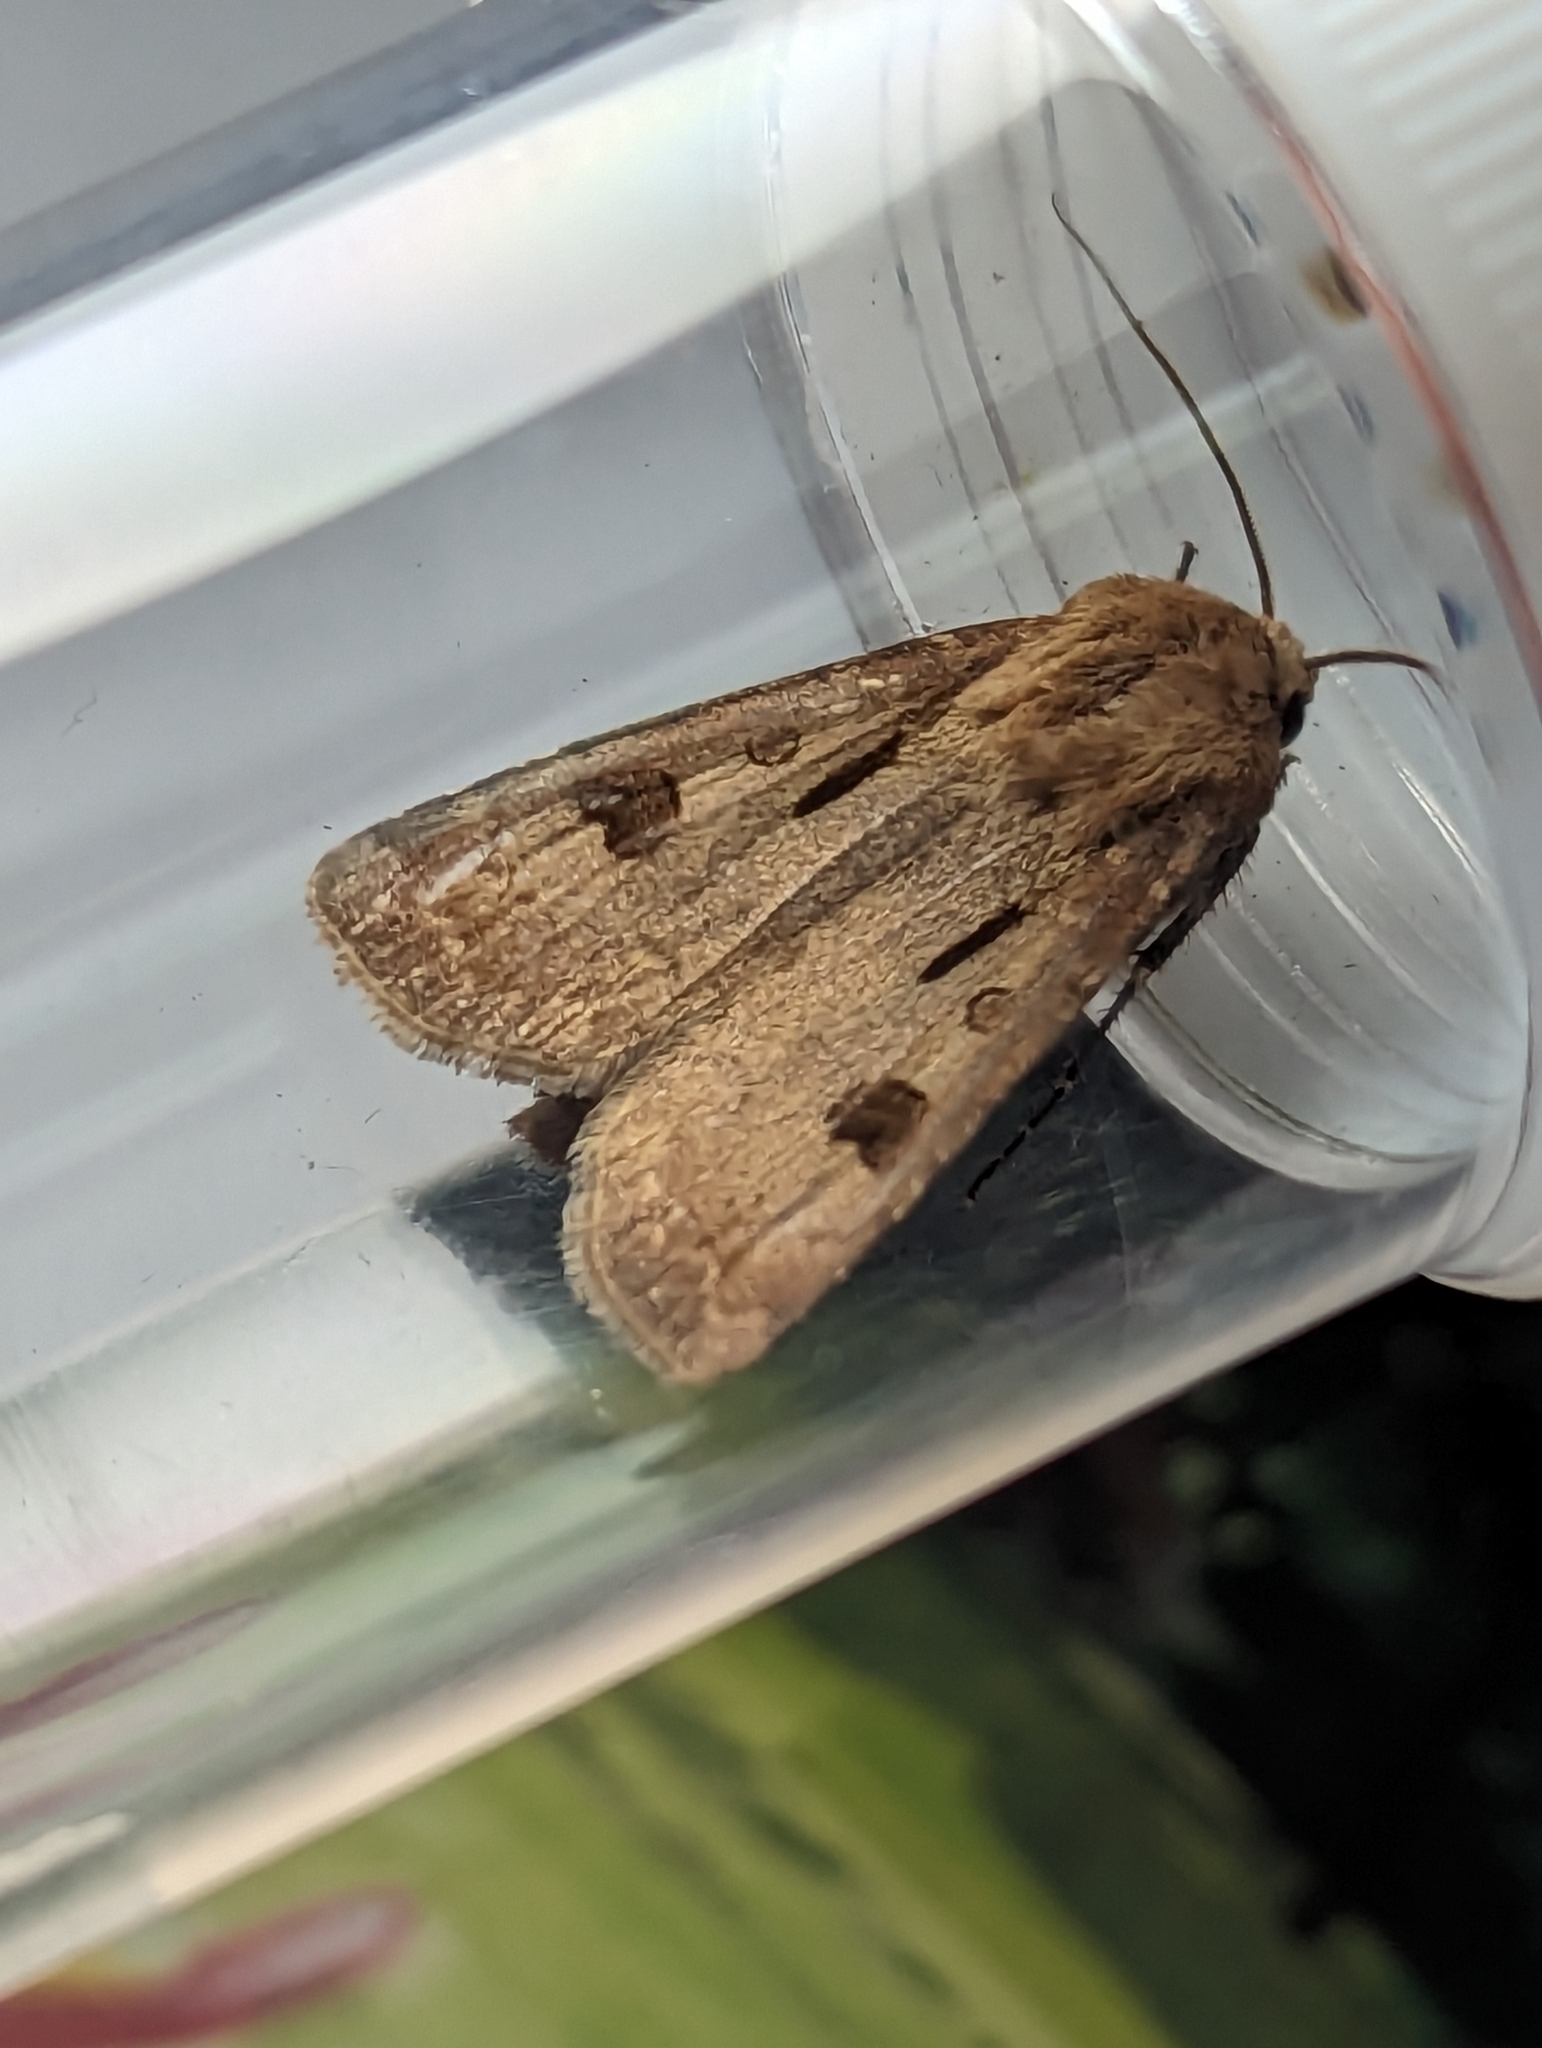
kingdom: Animalia
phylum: Arthropoda
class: Insecta
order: Lepidoptera
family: Noctuidae
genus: Agrotis
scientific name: Agrotis exclamationis
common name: Heart and dart
